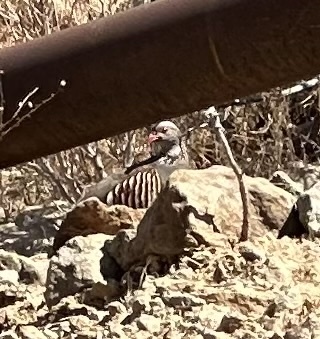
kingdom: Animalia
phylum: Chordata
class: Aves
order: Galliformes
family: Phasianidae
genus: Alectoris
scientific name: Alectoris barbara
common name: Barbary partridge
